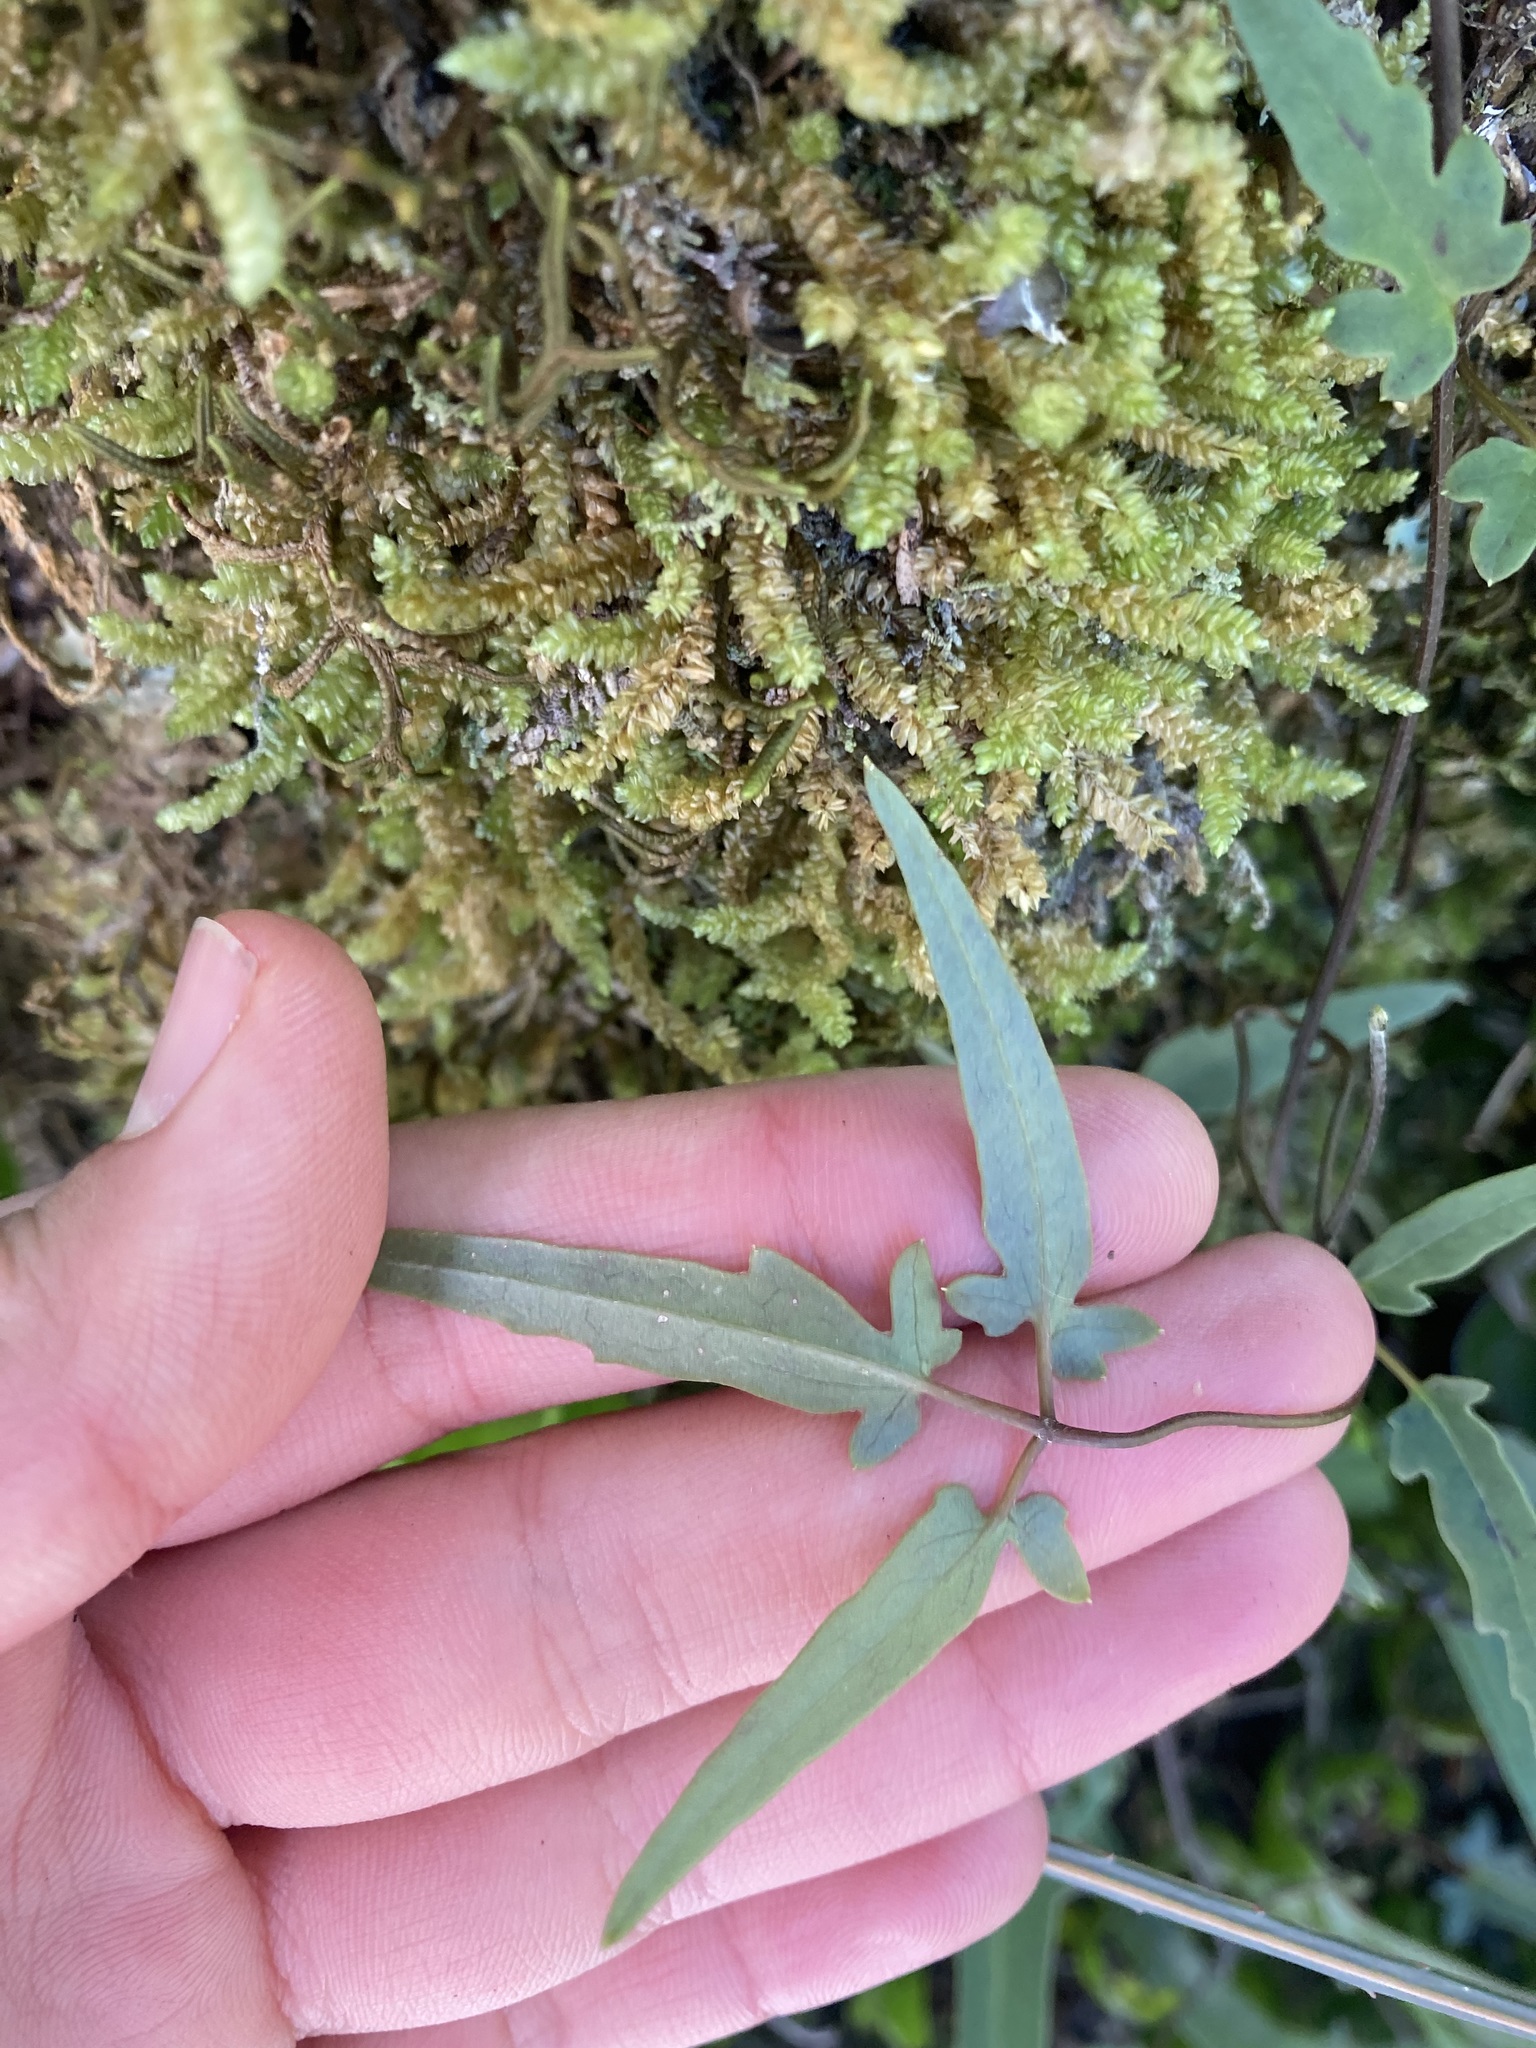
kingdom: Plantae
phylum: Tracheophyta
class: Magnoliopsida
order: Ranunculales
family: Ranunculaceae
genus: Clematis
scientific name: Clematis paniculata
